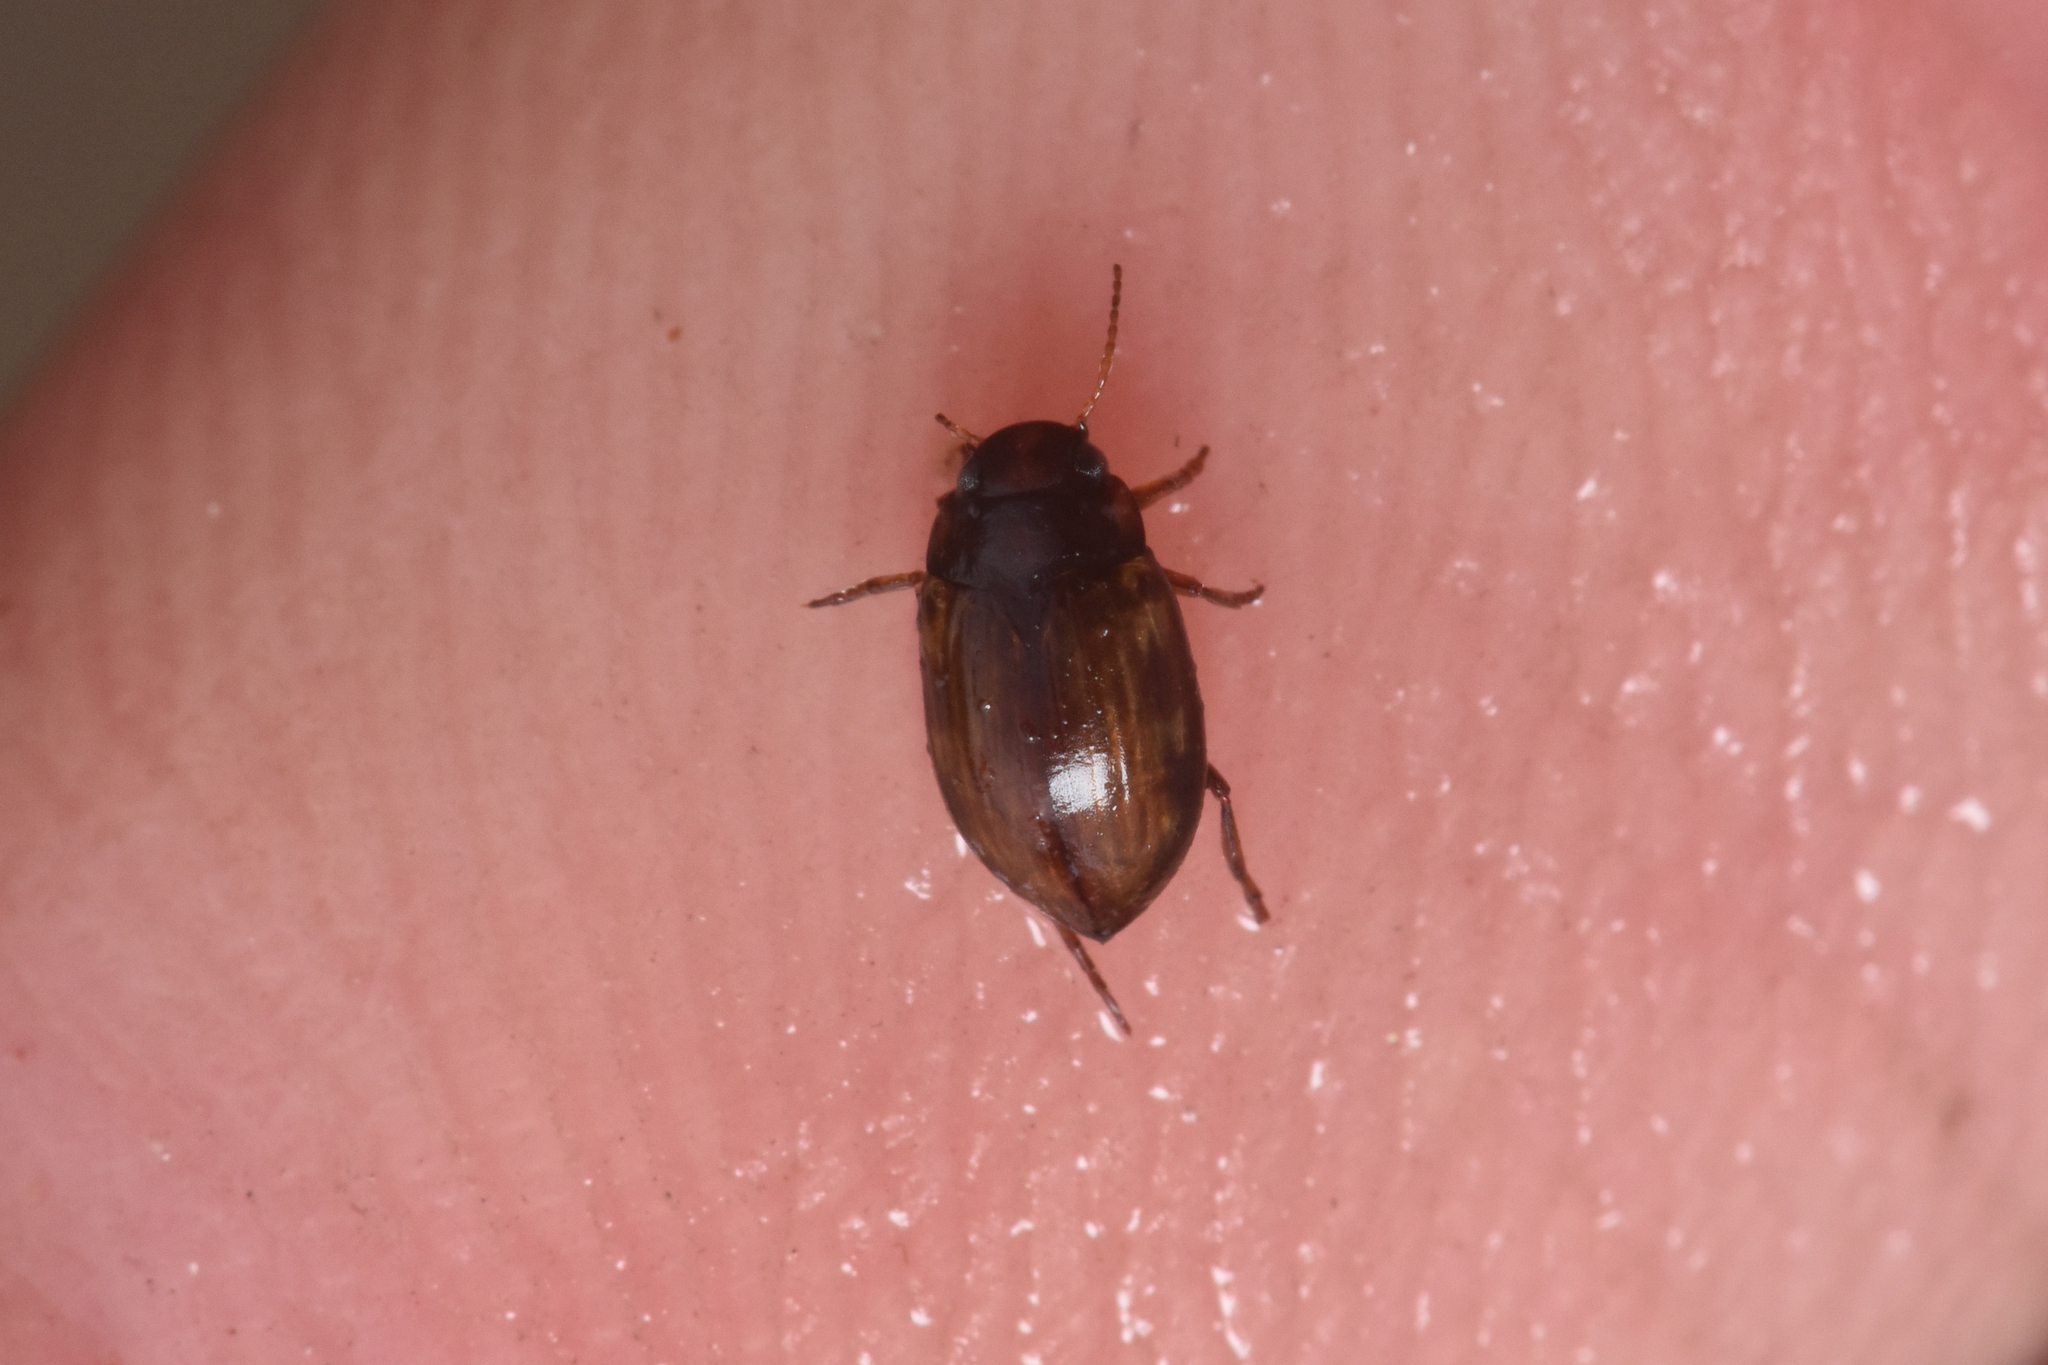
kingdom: Animalia
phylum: Arthropoda
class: Insecta
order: Coleoptera
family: Dytiscidae
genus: Leconectes
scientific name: Leconectes striatellus
